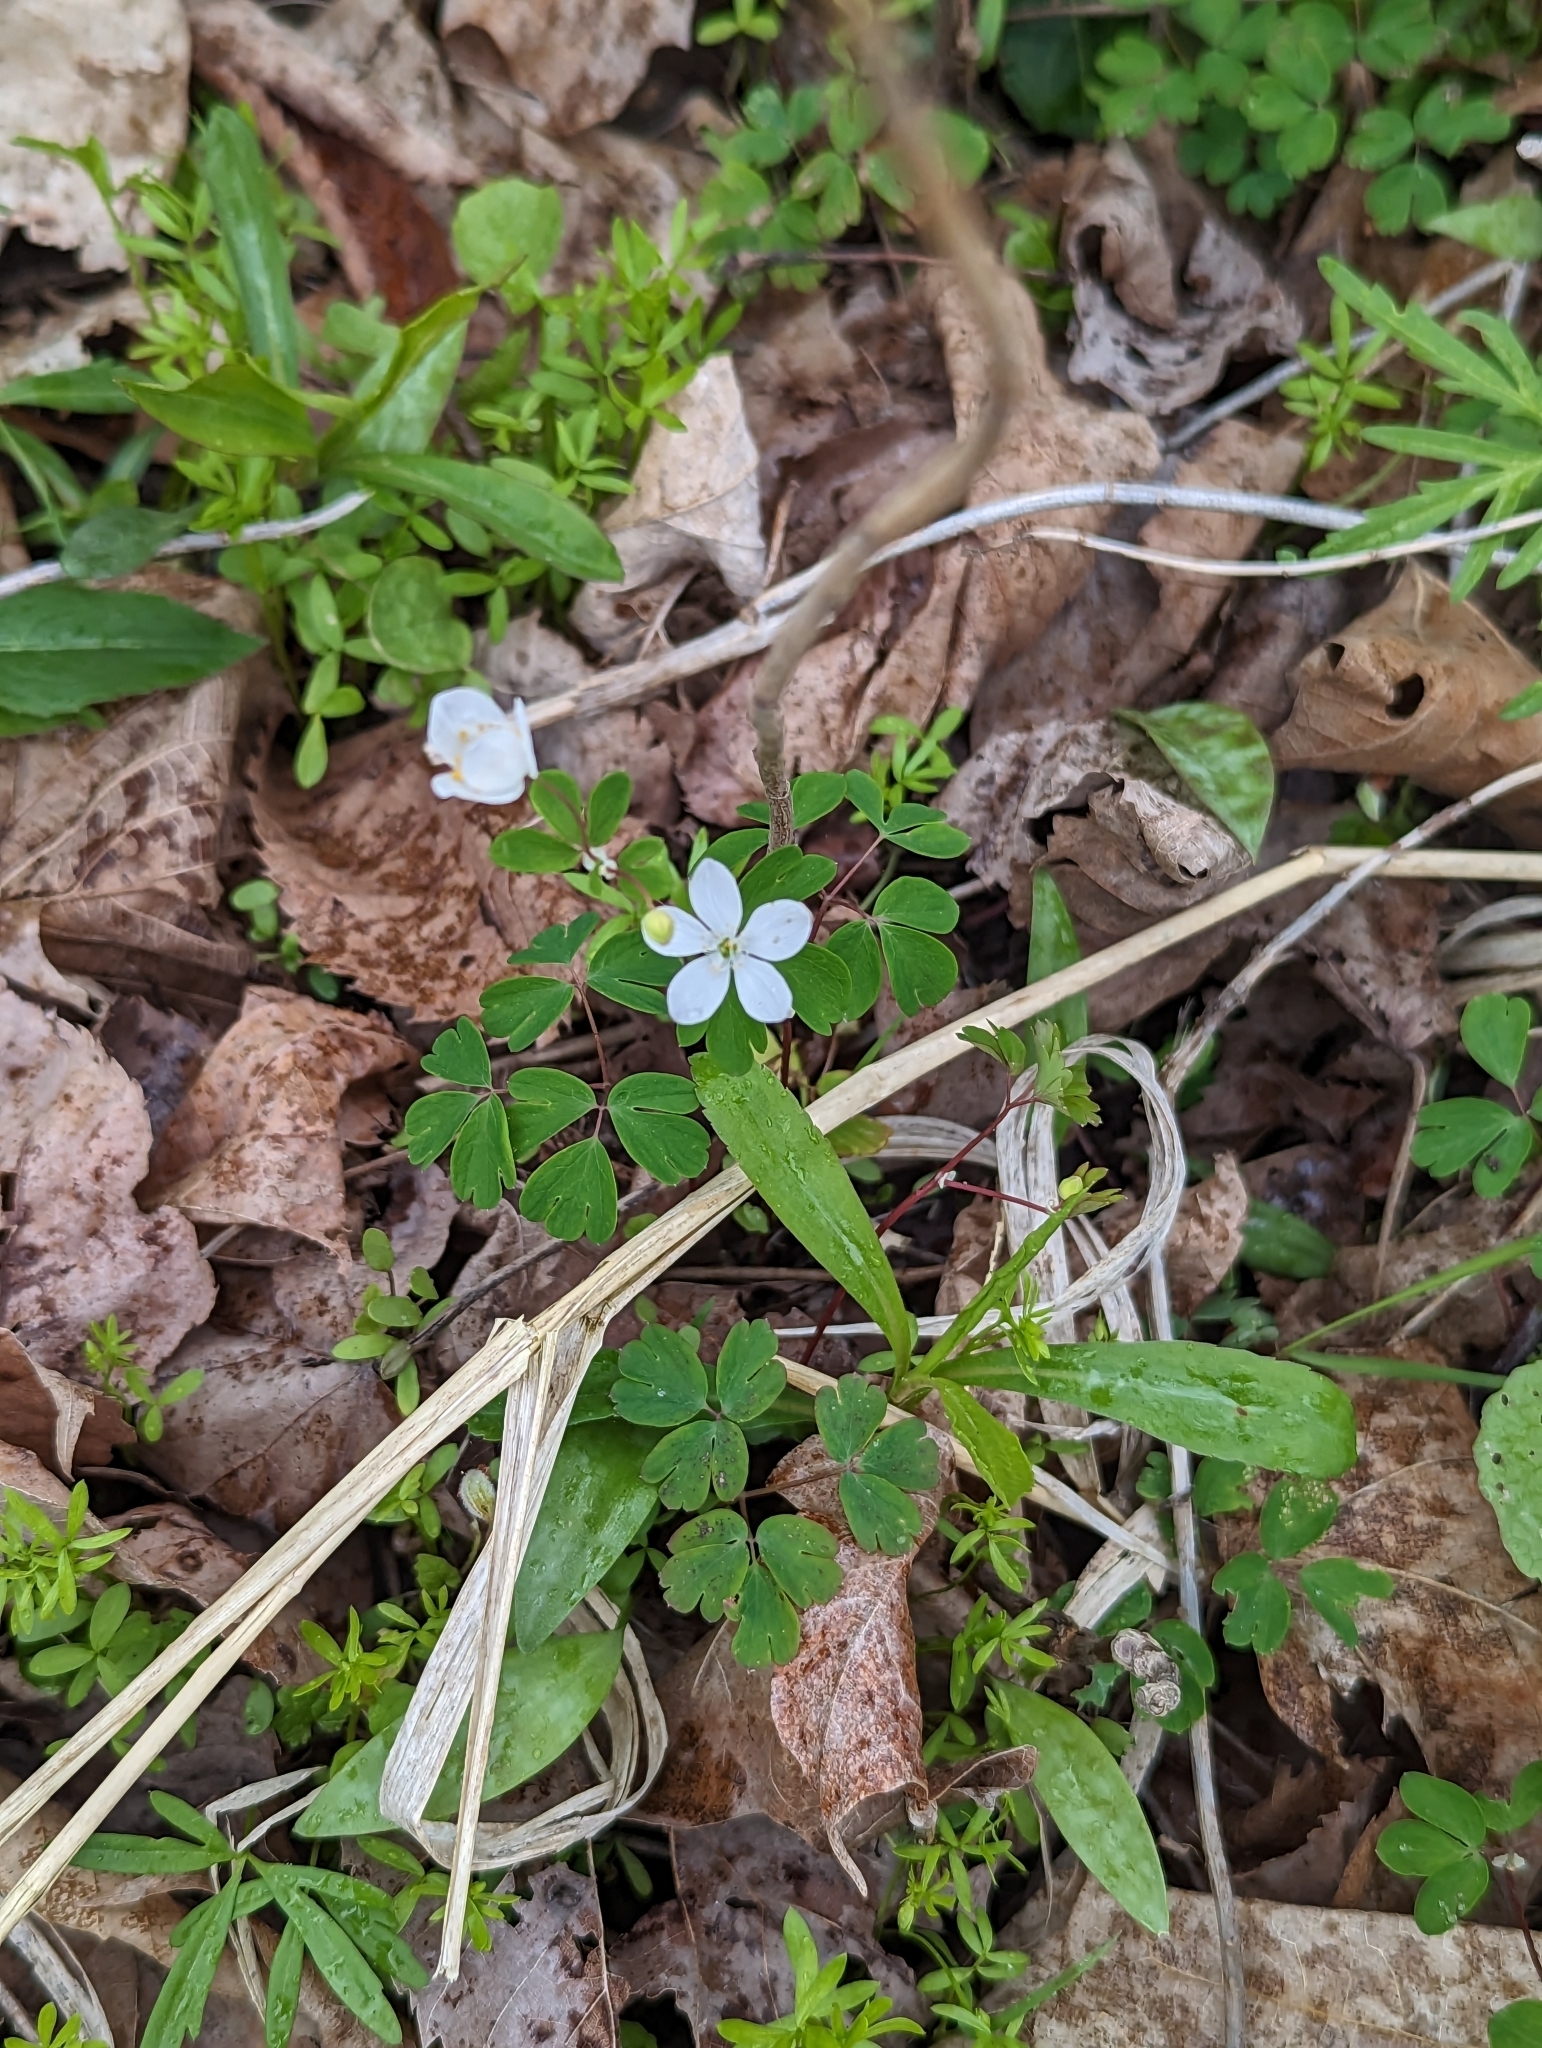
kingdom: Plantae
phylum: Tracheophyta
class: Magnoliopsida
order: Ranunculales
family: Ranunculaceae
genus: Enemion
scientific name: Enemion biternatum
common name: Eastern false rue-anemone
